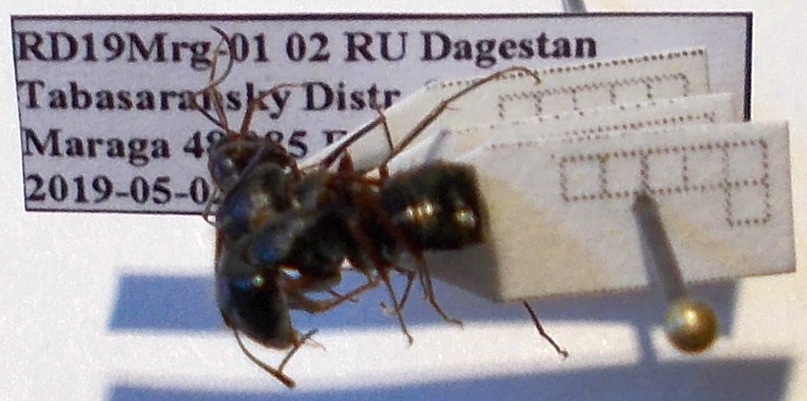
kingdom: Animalia
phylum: Arthropoda
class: Insecta
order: Hymenoptera
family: Formicidae
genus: Camponotus
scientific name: Camponotus aethiops
